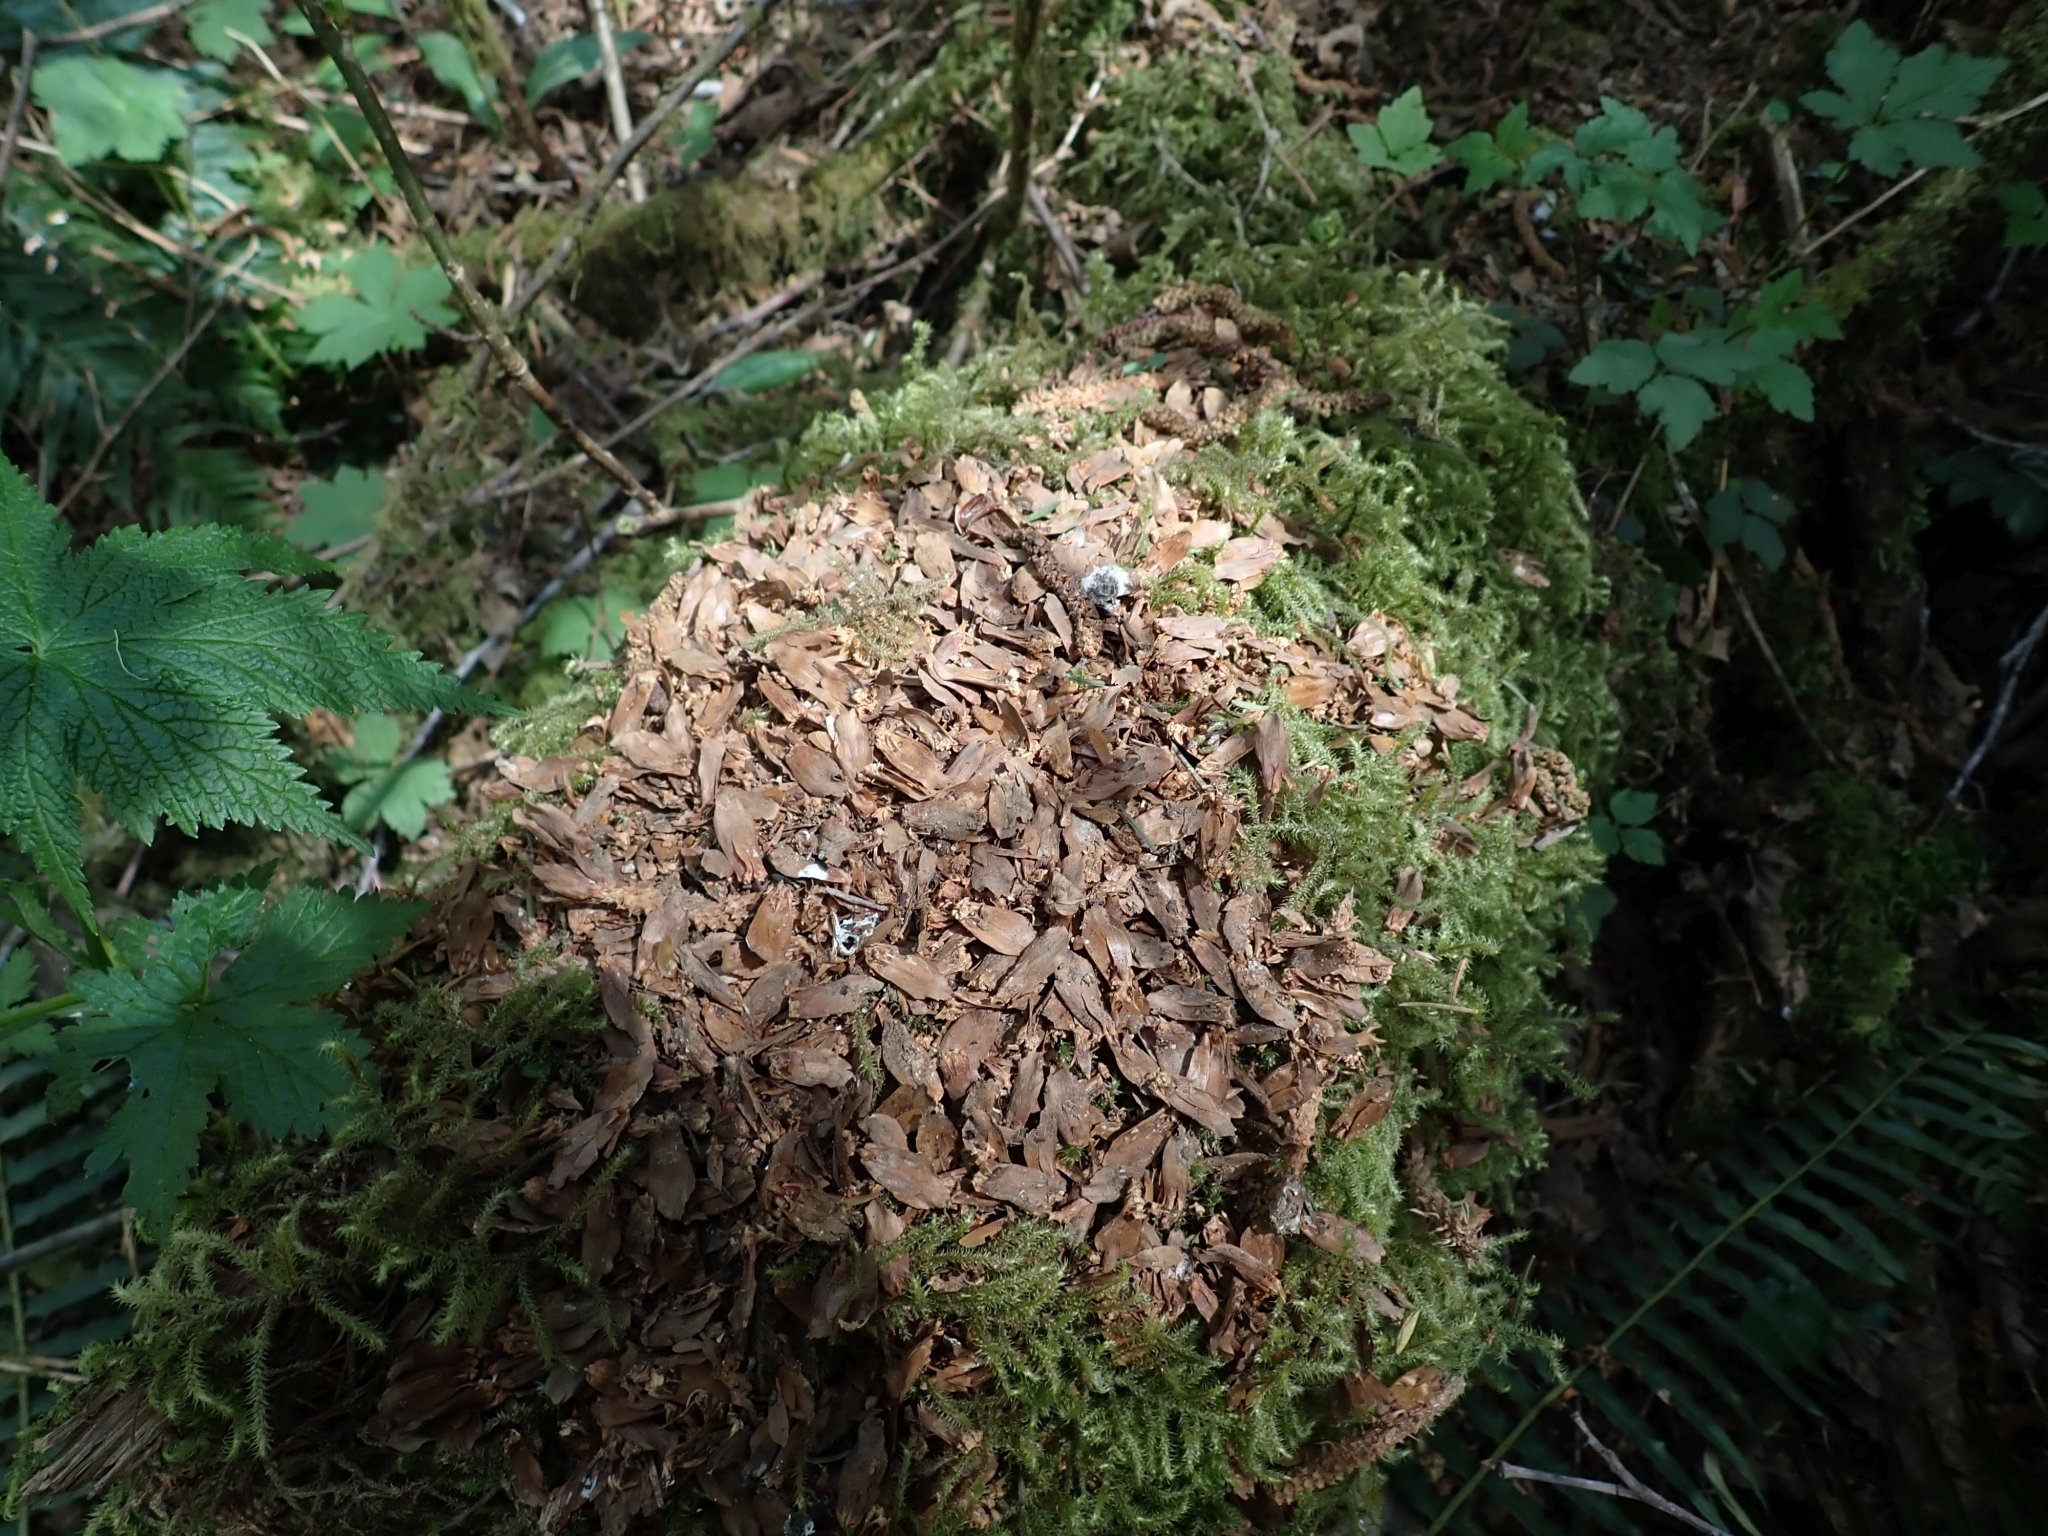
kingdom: Animalia
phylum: Chordata
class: Mammalia
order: Rodentia
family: Sciuridae
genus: Tamiasciurus
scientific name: Tamiasciurus hudsonicus
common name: Red squirrel
